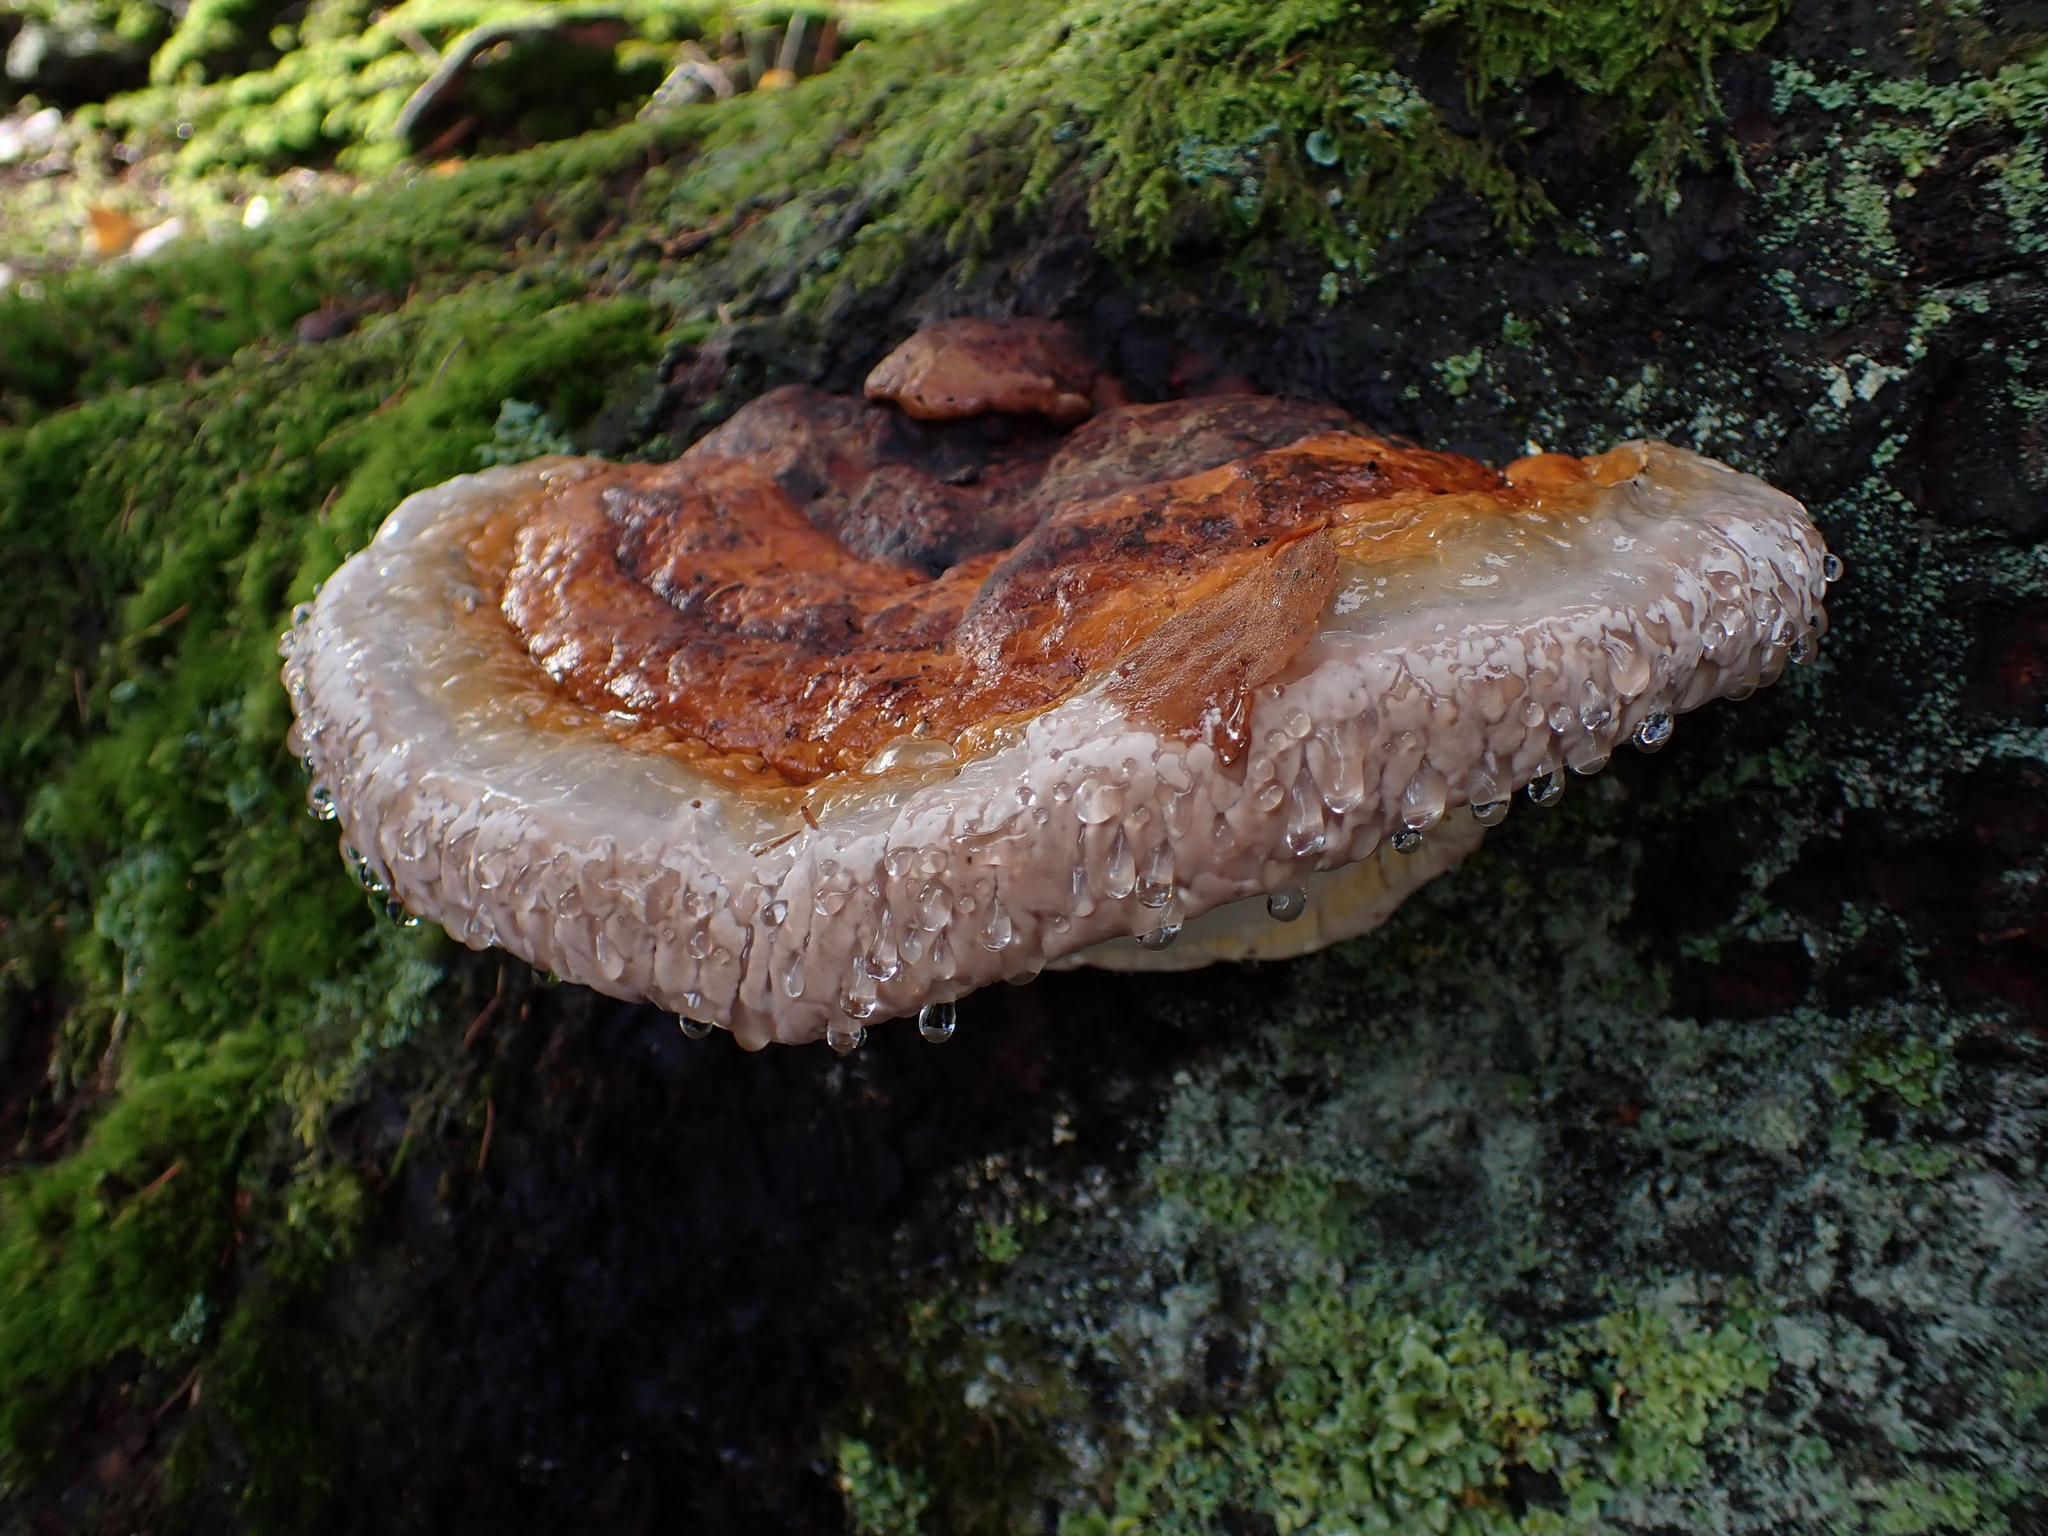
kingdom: Fungi
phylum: Basidiomycota
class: Agaricomycetes
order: Polyporales
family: Fomitopsidaceae
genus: Fomitopsis
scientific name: Fomitopsis pinicola
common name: Red-belted bracket
